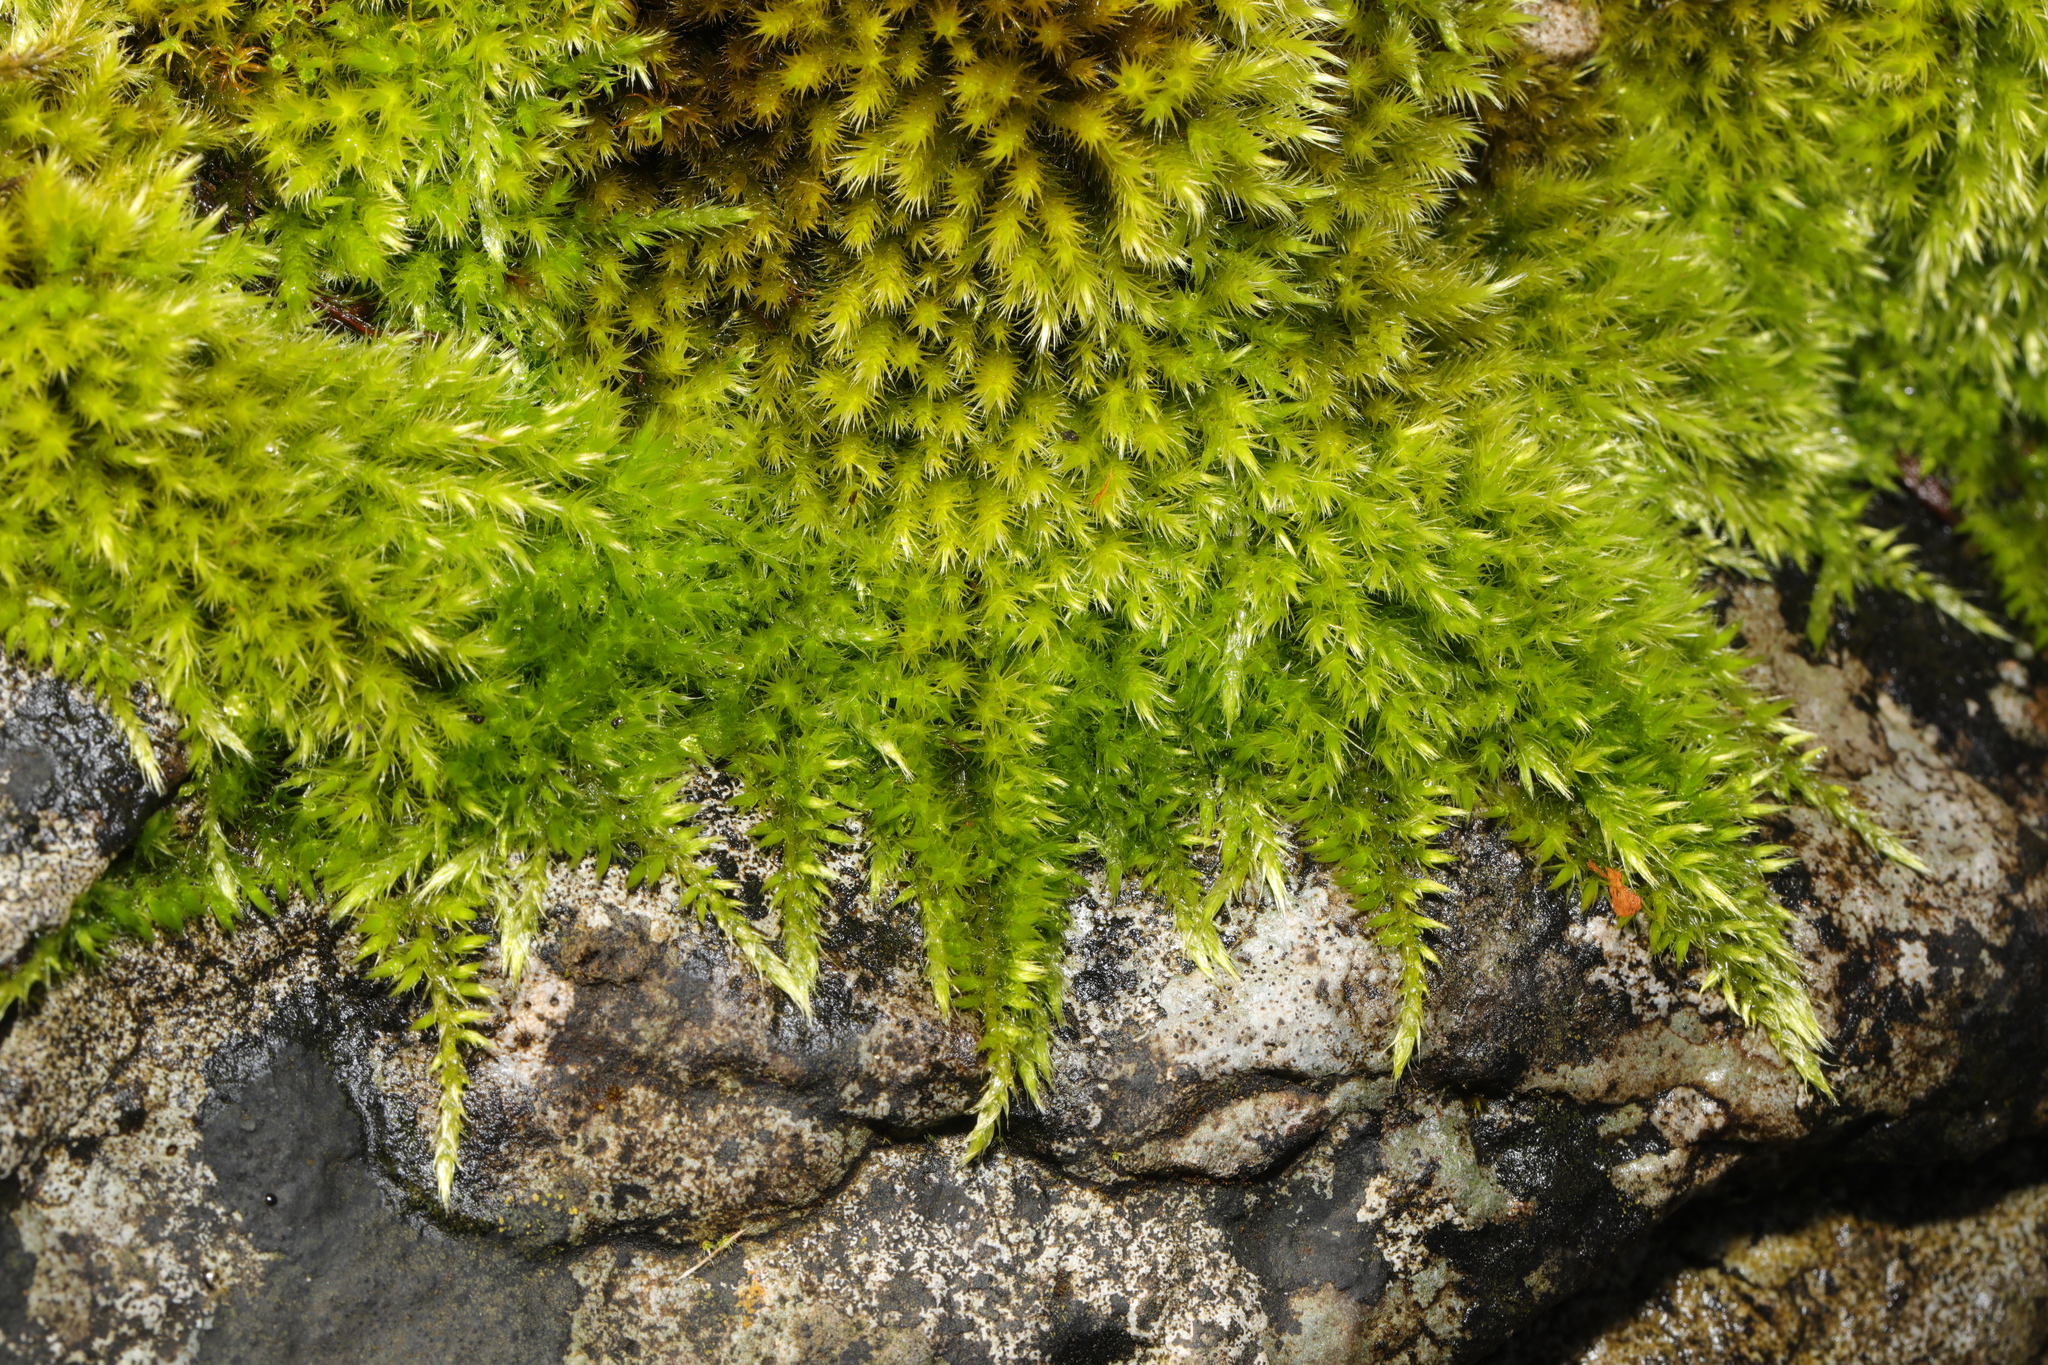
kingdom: Plantae
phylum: Bryophyta
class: Bryopsida
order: Hypnales
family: Brachytheciaceae
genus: Homalothecium
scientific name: Homalothecium sericeum
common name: Silky wall feather-moss
